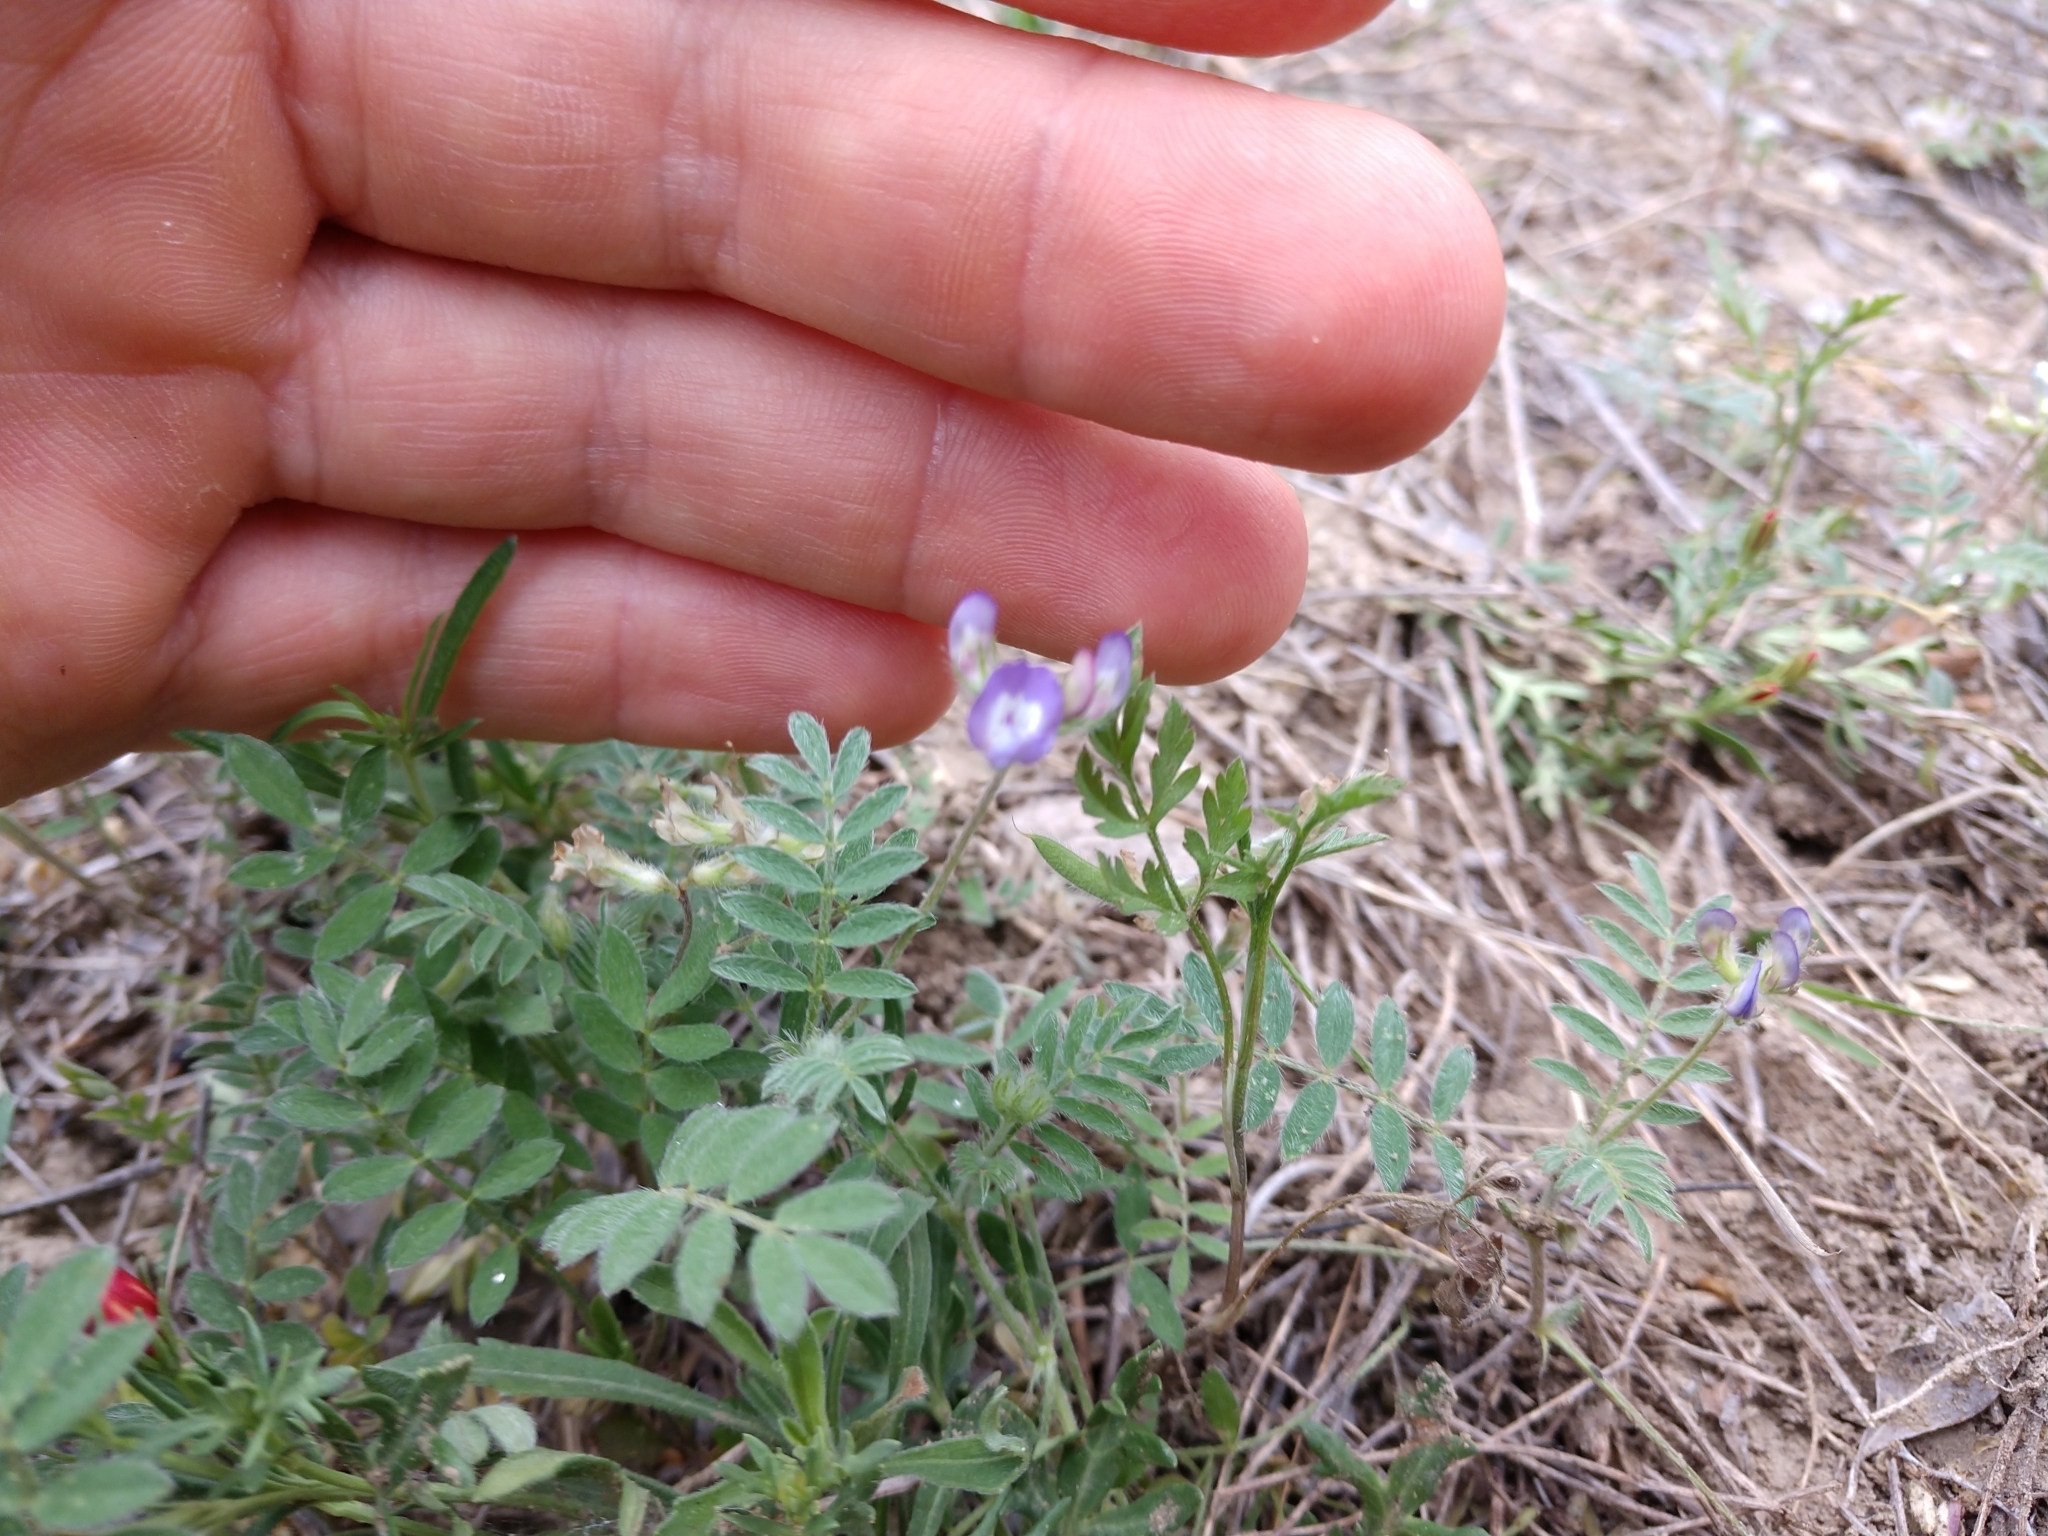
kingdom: Plantae
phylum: Tracheophyta
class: Magnoliopsida
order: Fabales
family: Fabaceae
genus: Astragalus
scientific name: Astragalus nuttallianus
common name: Smallflowered milkvetch
